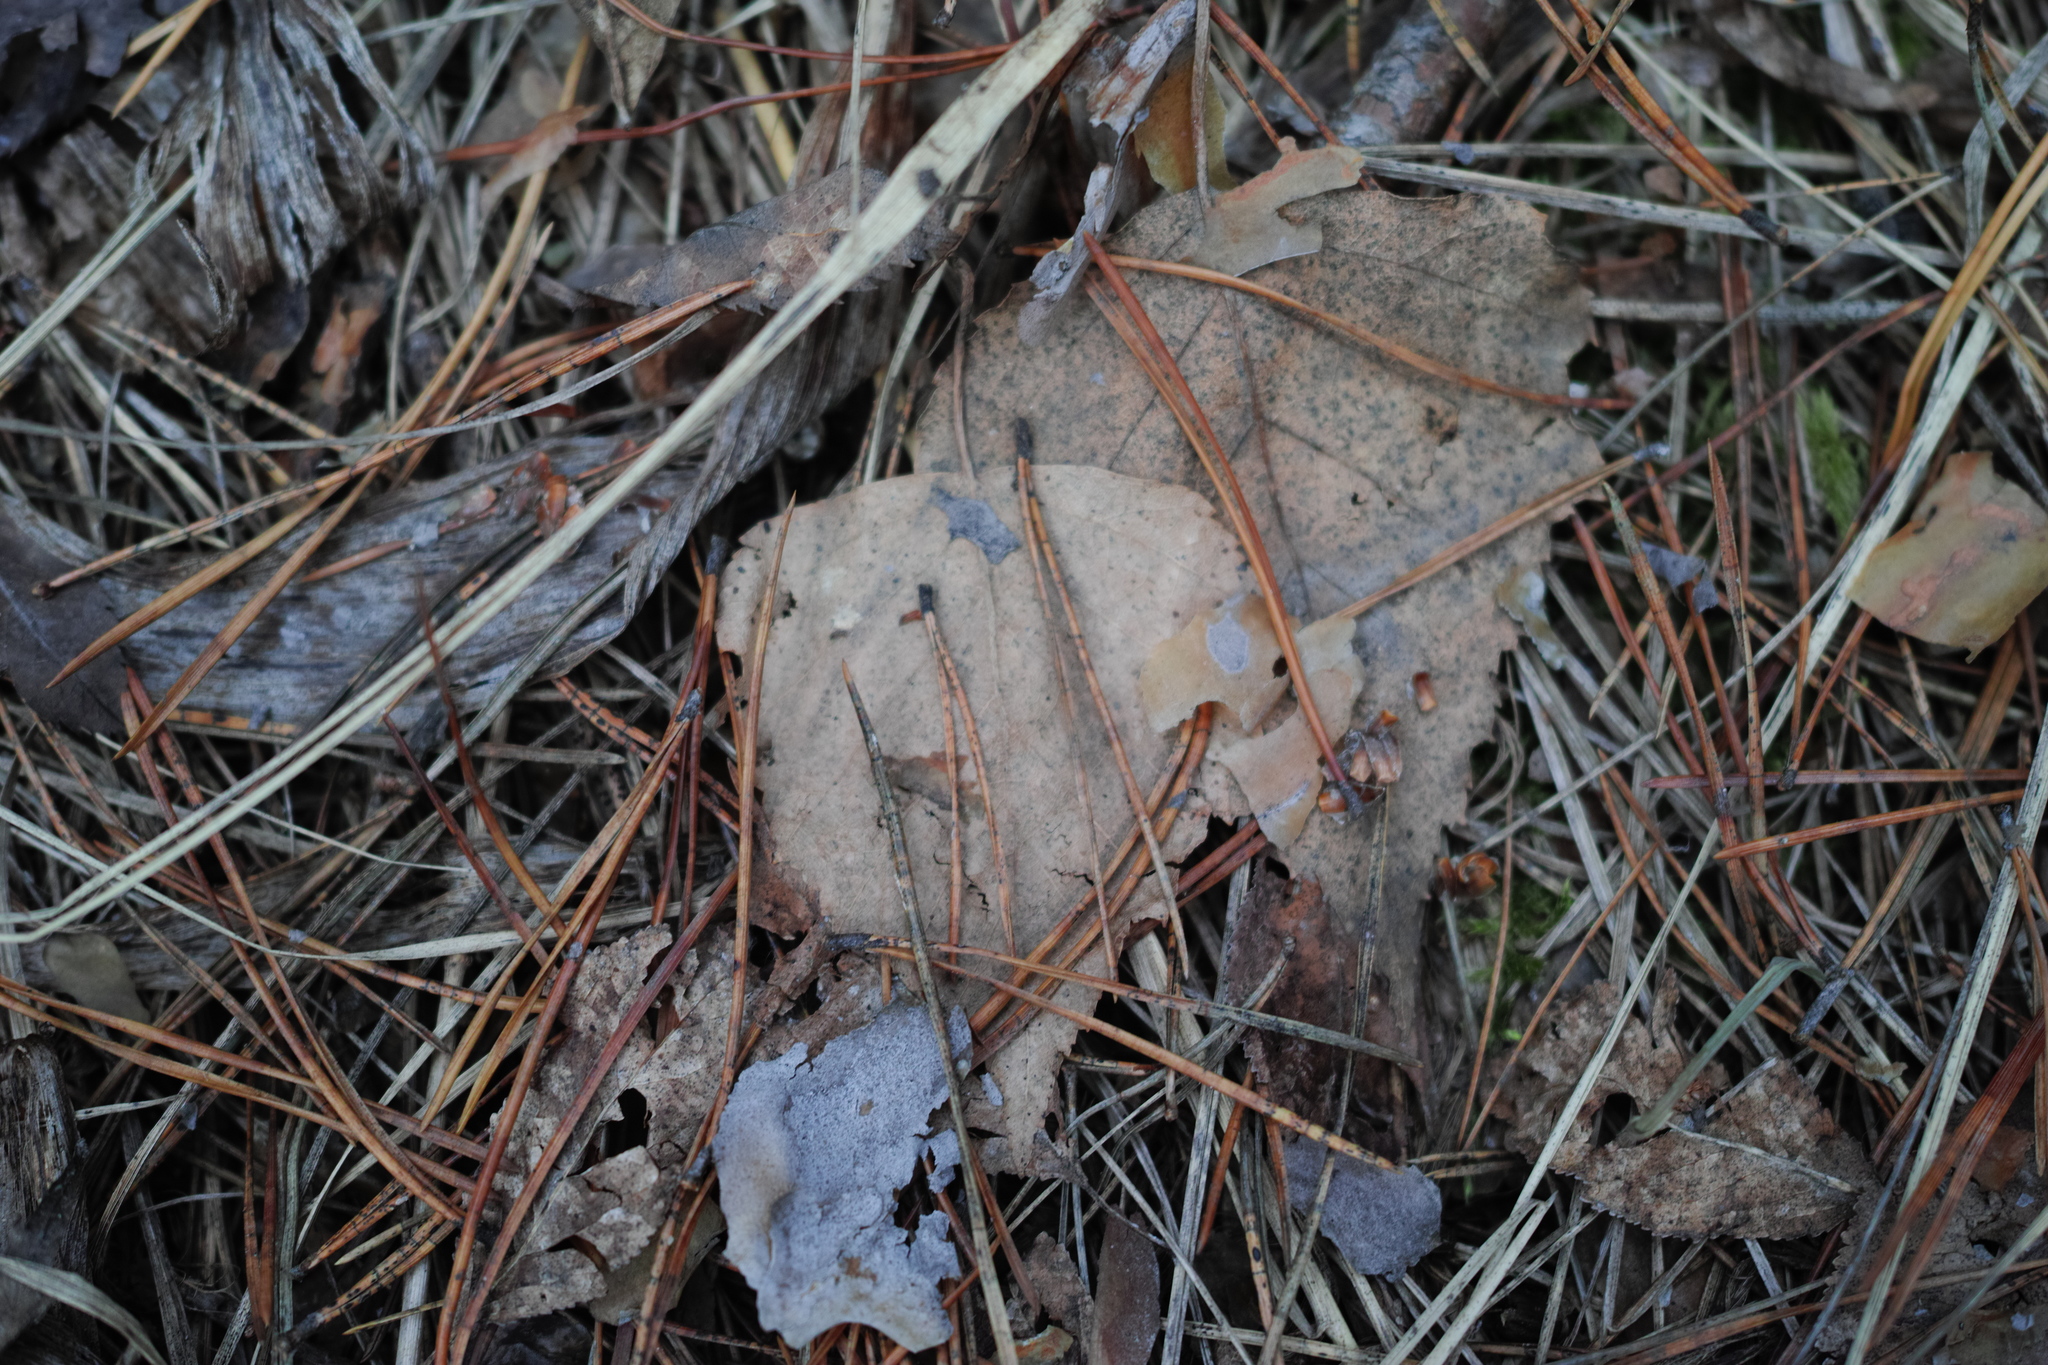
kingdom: Plantae
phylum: Tracheophyta
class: Magnoliopsida
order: Fagales
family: Betulaceae
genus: Betula
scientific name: Betula pendula
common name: Silver birch
